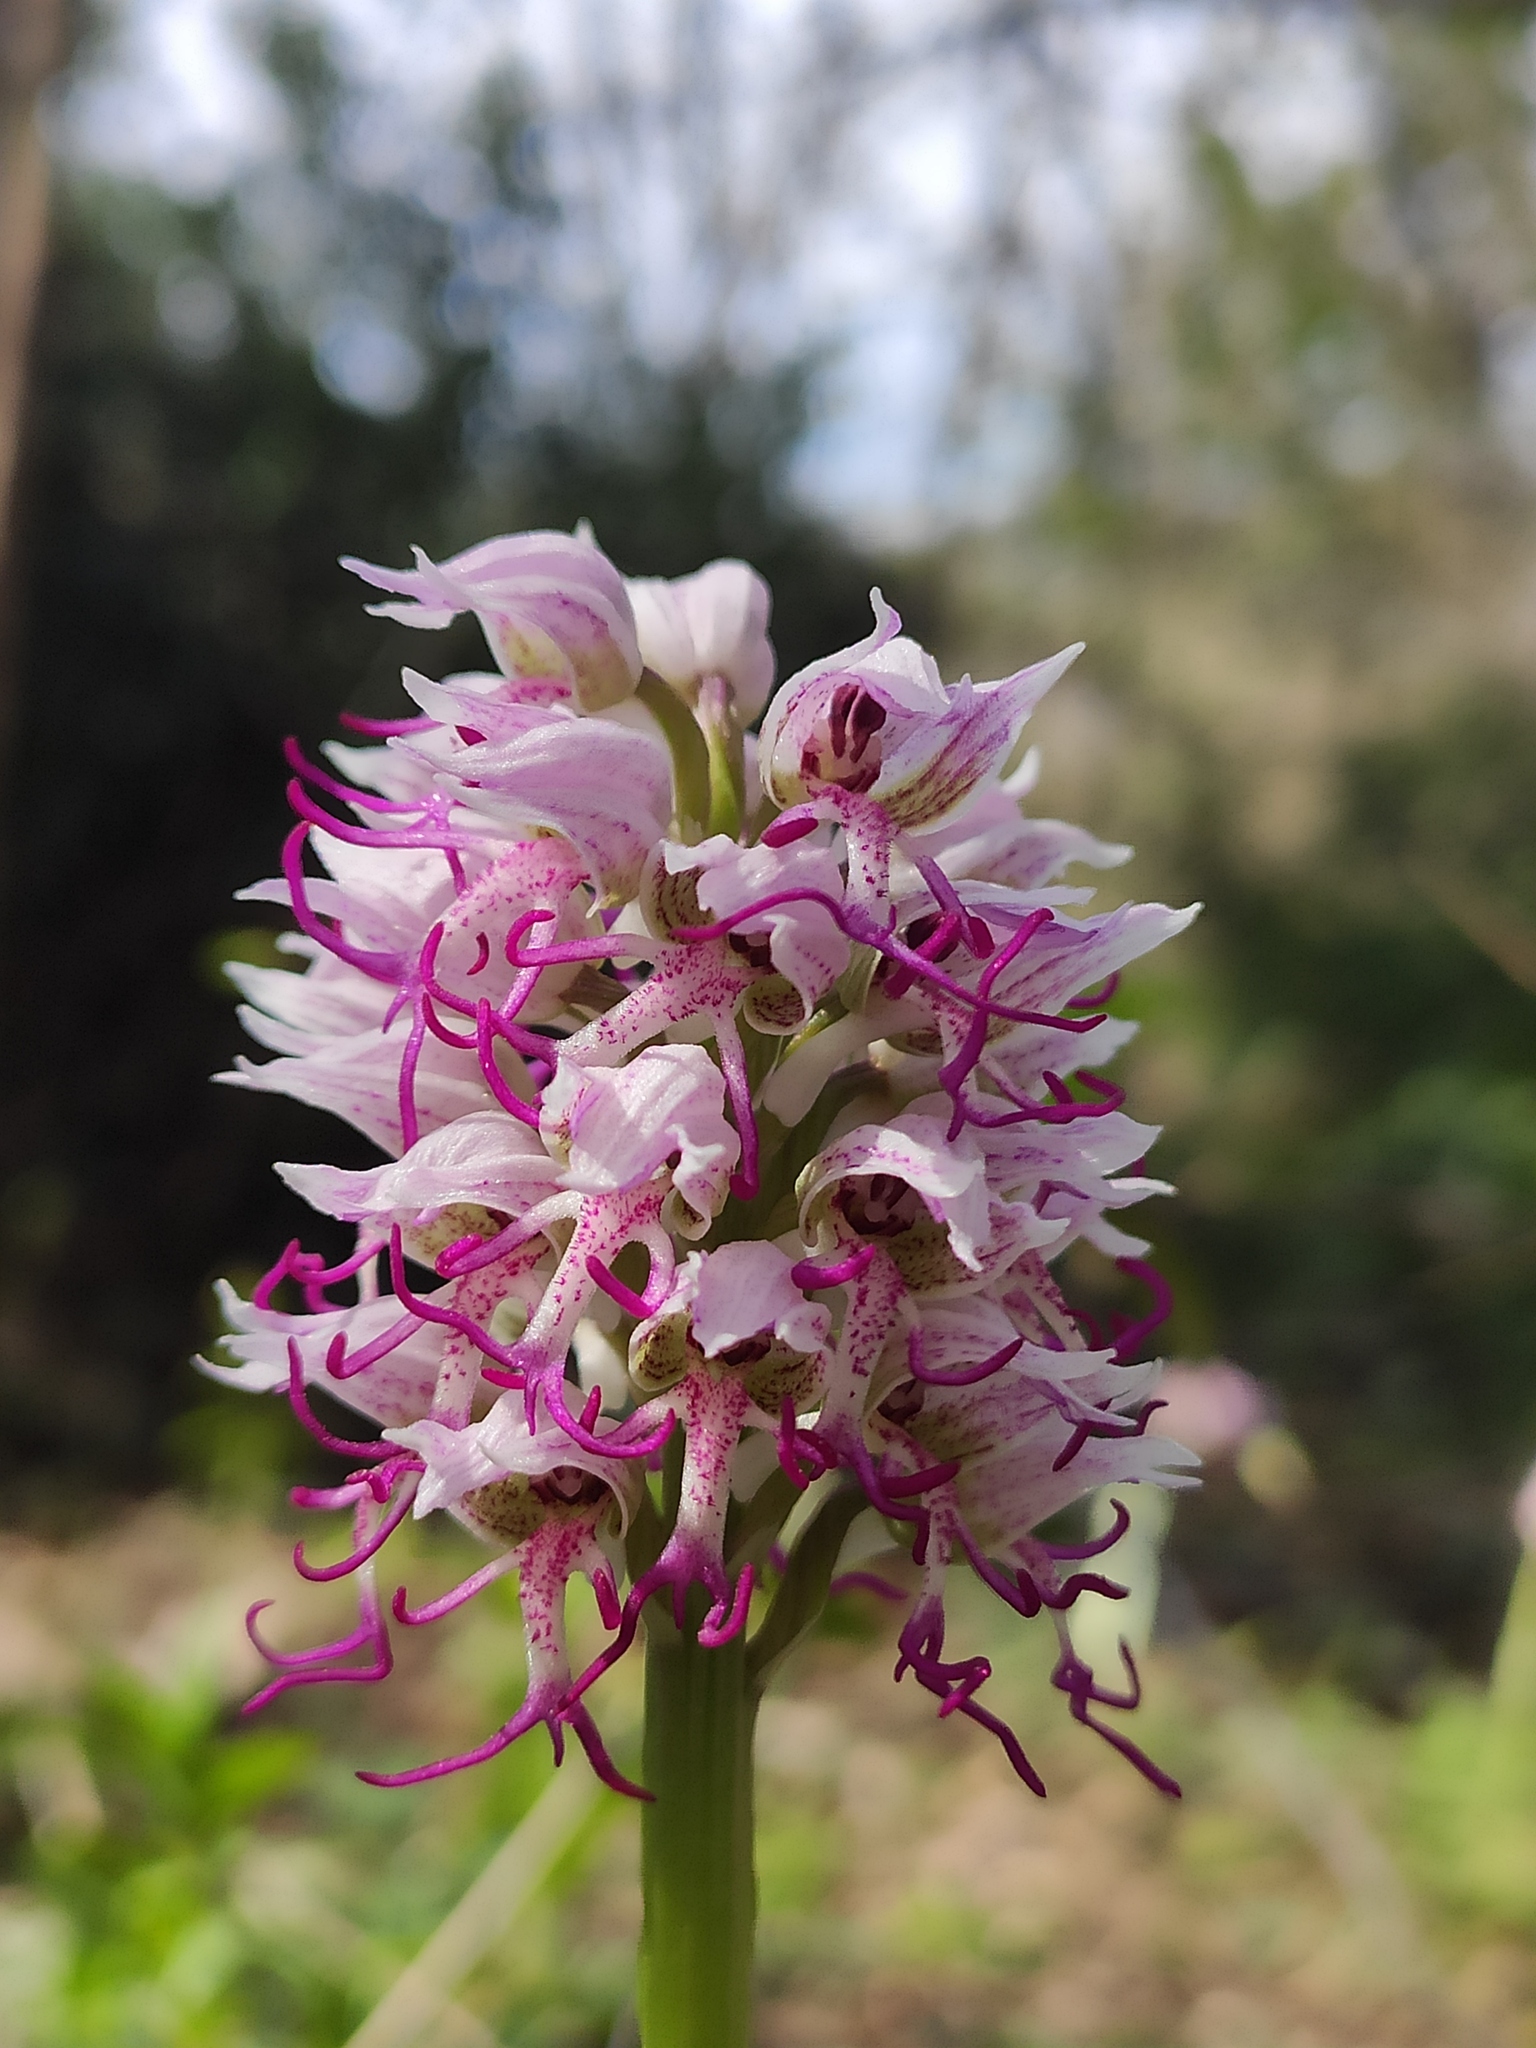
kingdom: Plantae
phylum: Tracheophyta
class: Liliopsida
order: Asparagales
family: Orchidaceae
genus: Orchis
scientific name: Orchis simia
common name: Monkey orchid
